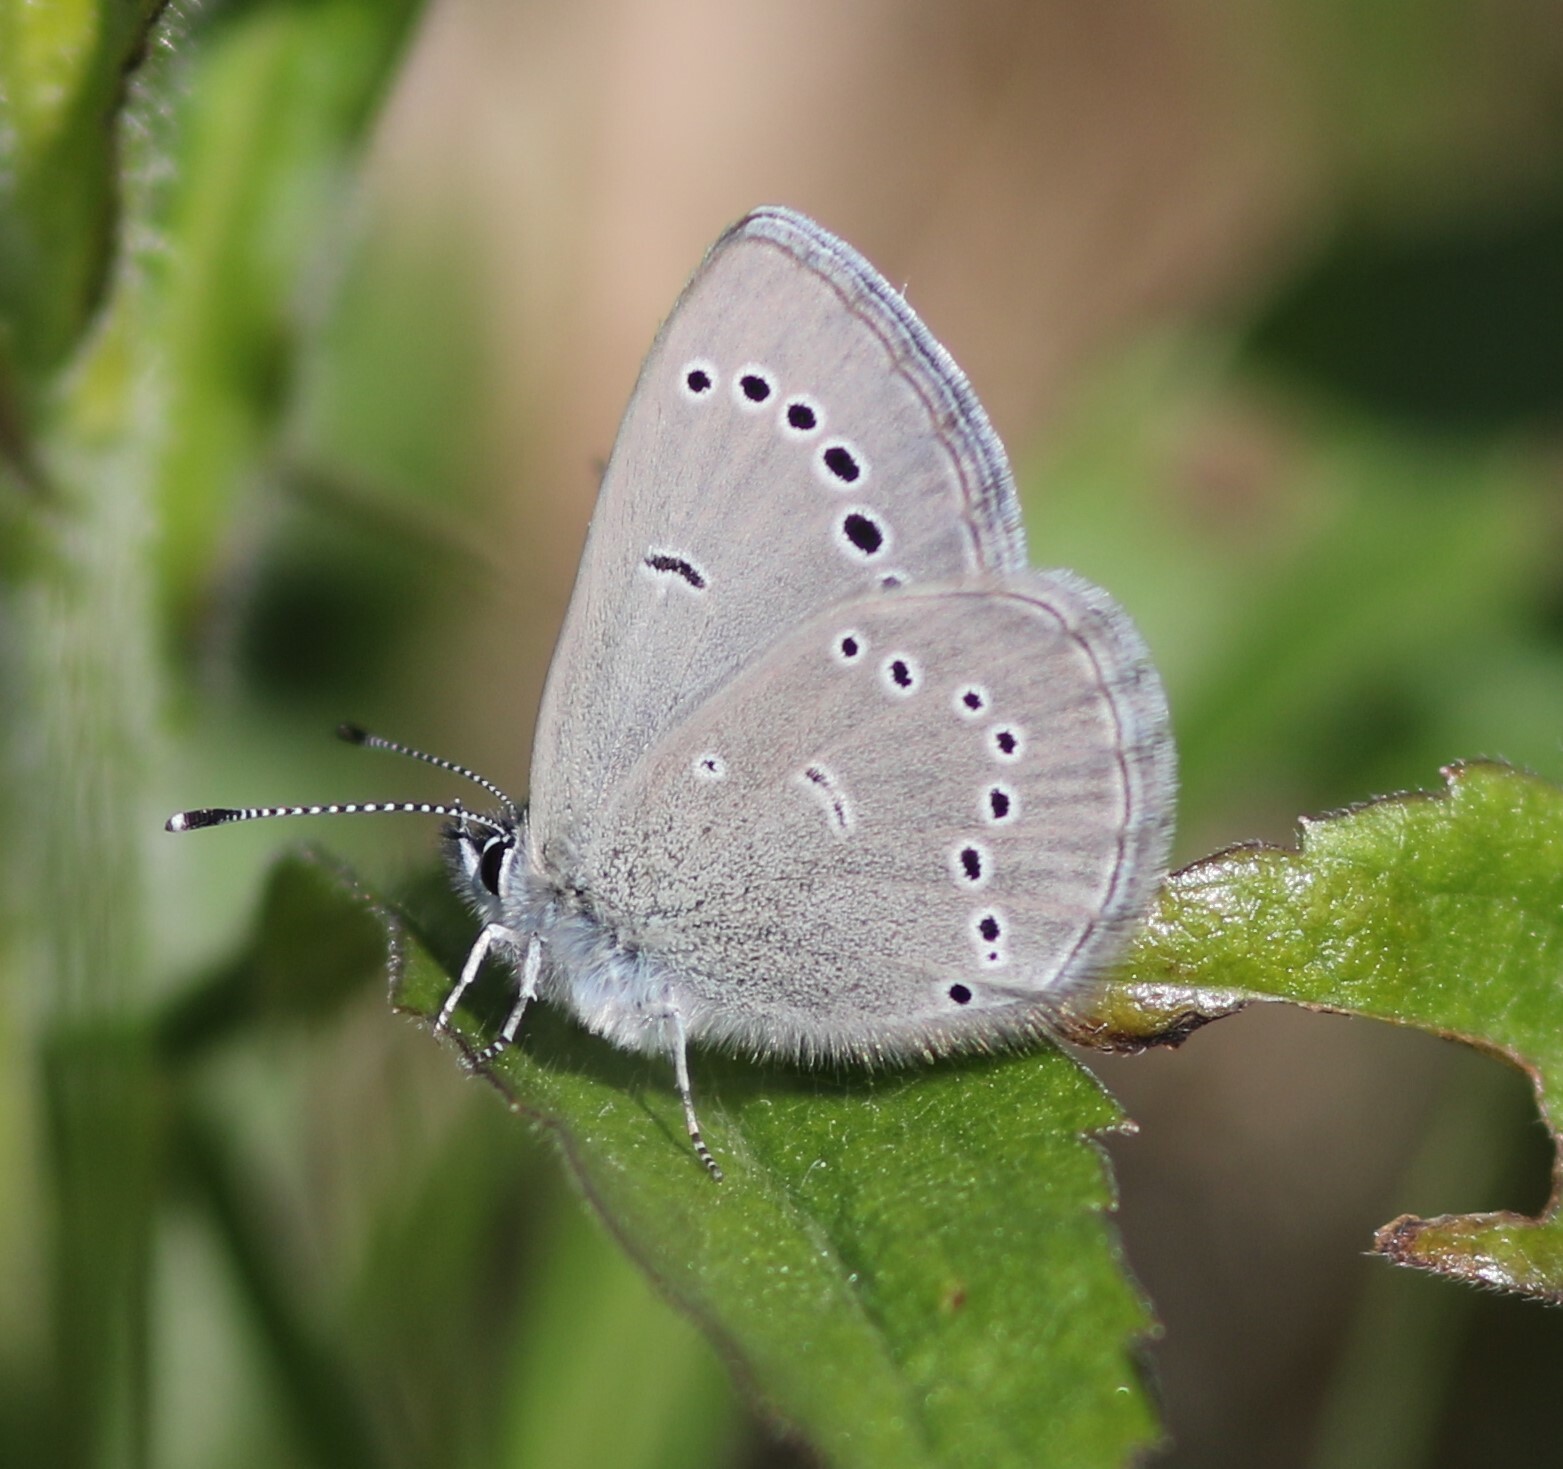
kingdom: Animalia
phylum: Arthropoda
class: Insecta
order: Lepidoptera
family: Lycaenidae
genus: Glaucopsyche
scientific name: Glaucopsyche lygdamus
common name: Silvery blue
